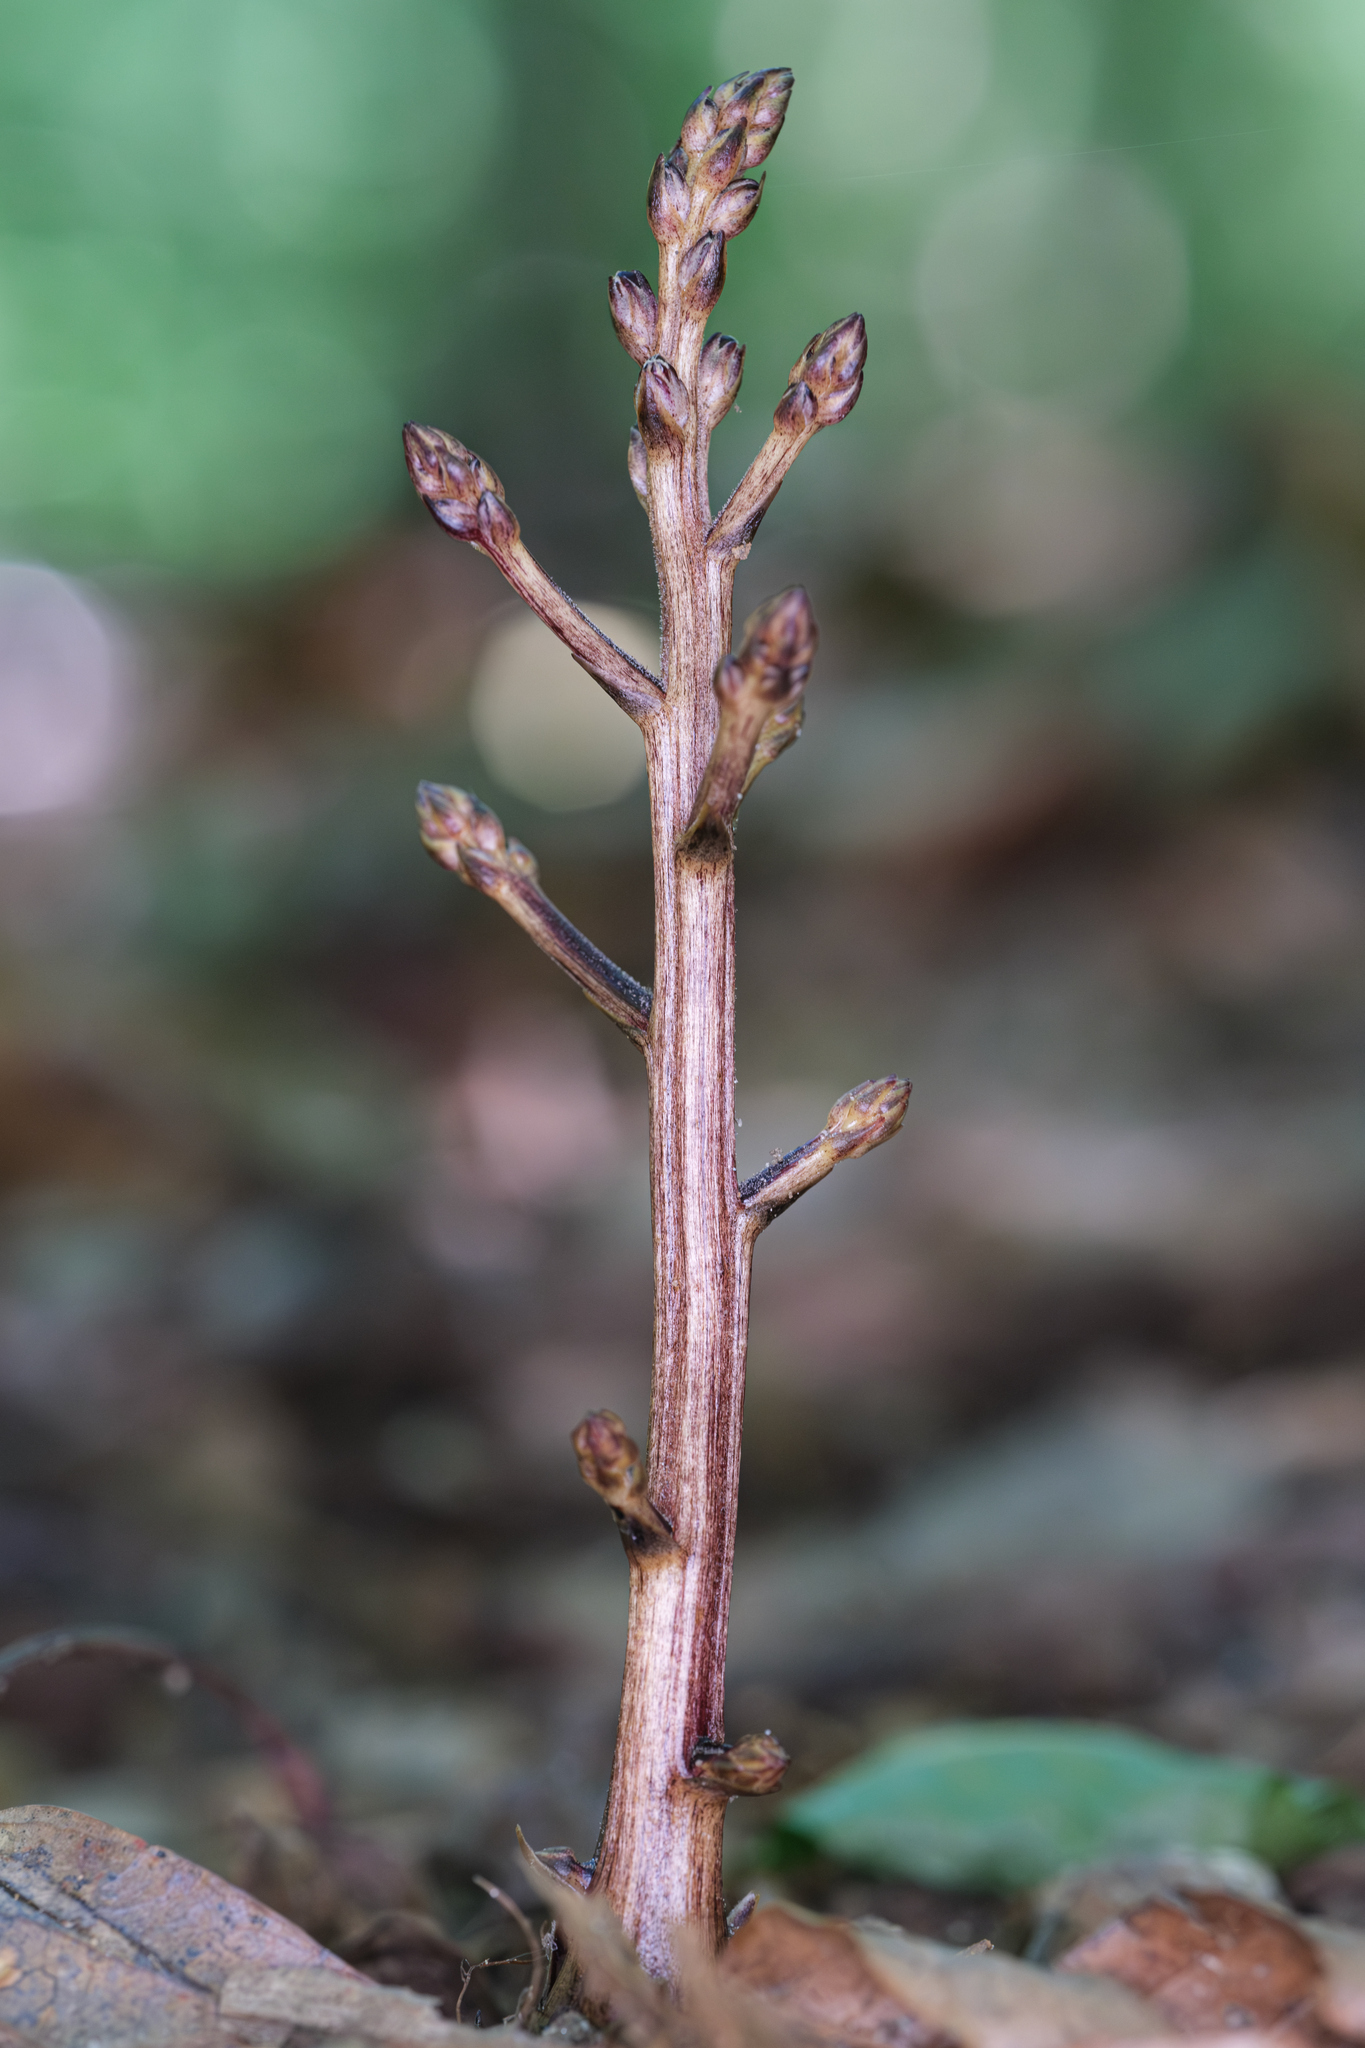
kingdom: Plantae
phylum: Tracheophyta
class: Magnoliopsida
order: Lamiales
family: Orobanchaceae
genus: Epifagus
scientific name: Epifagus virginiana
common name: Beechdrops
